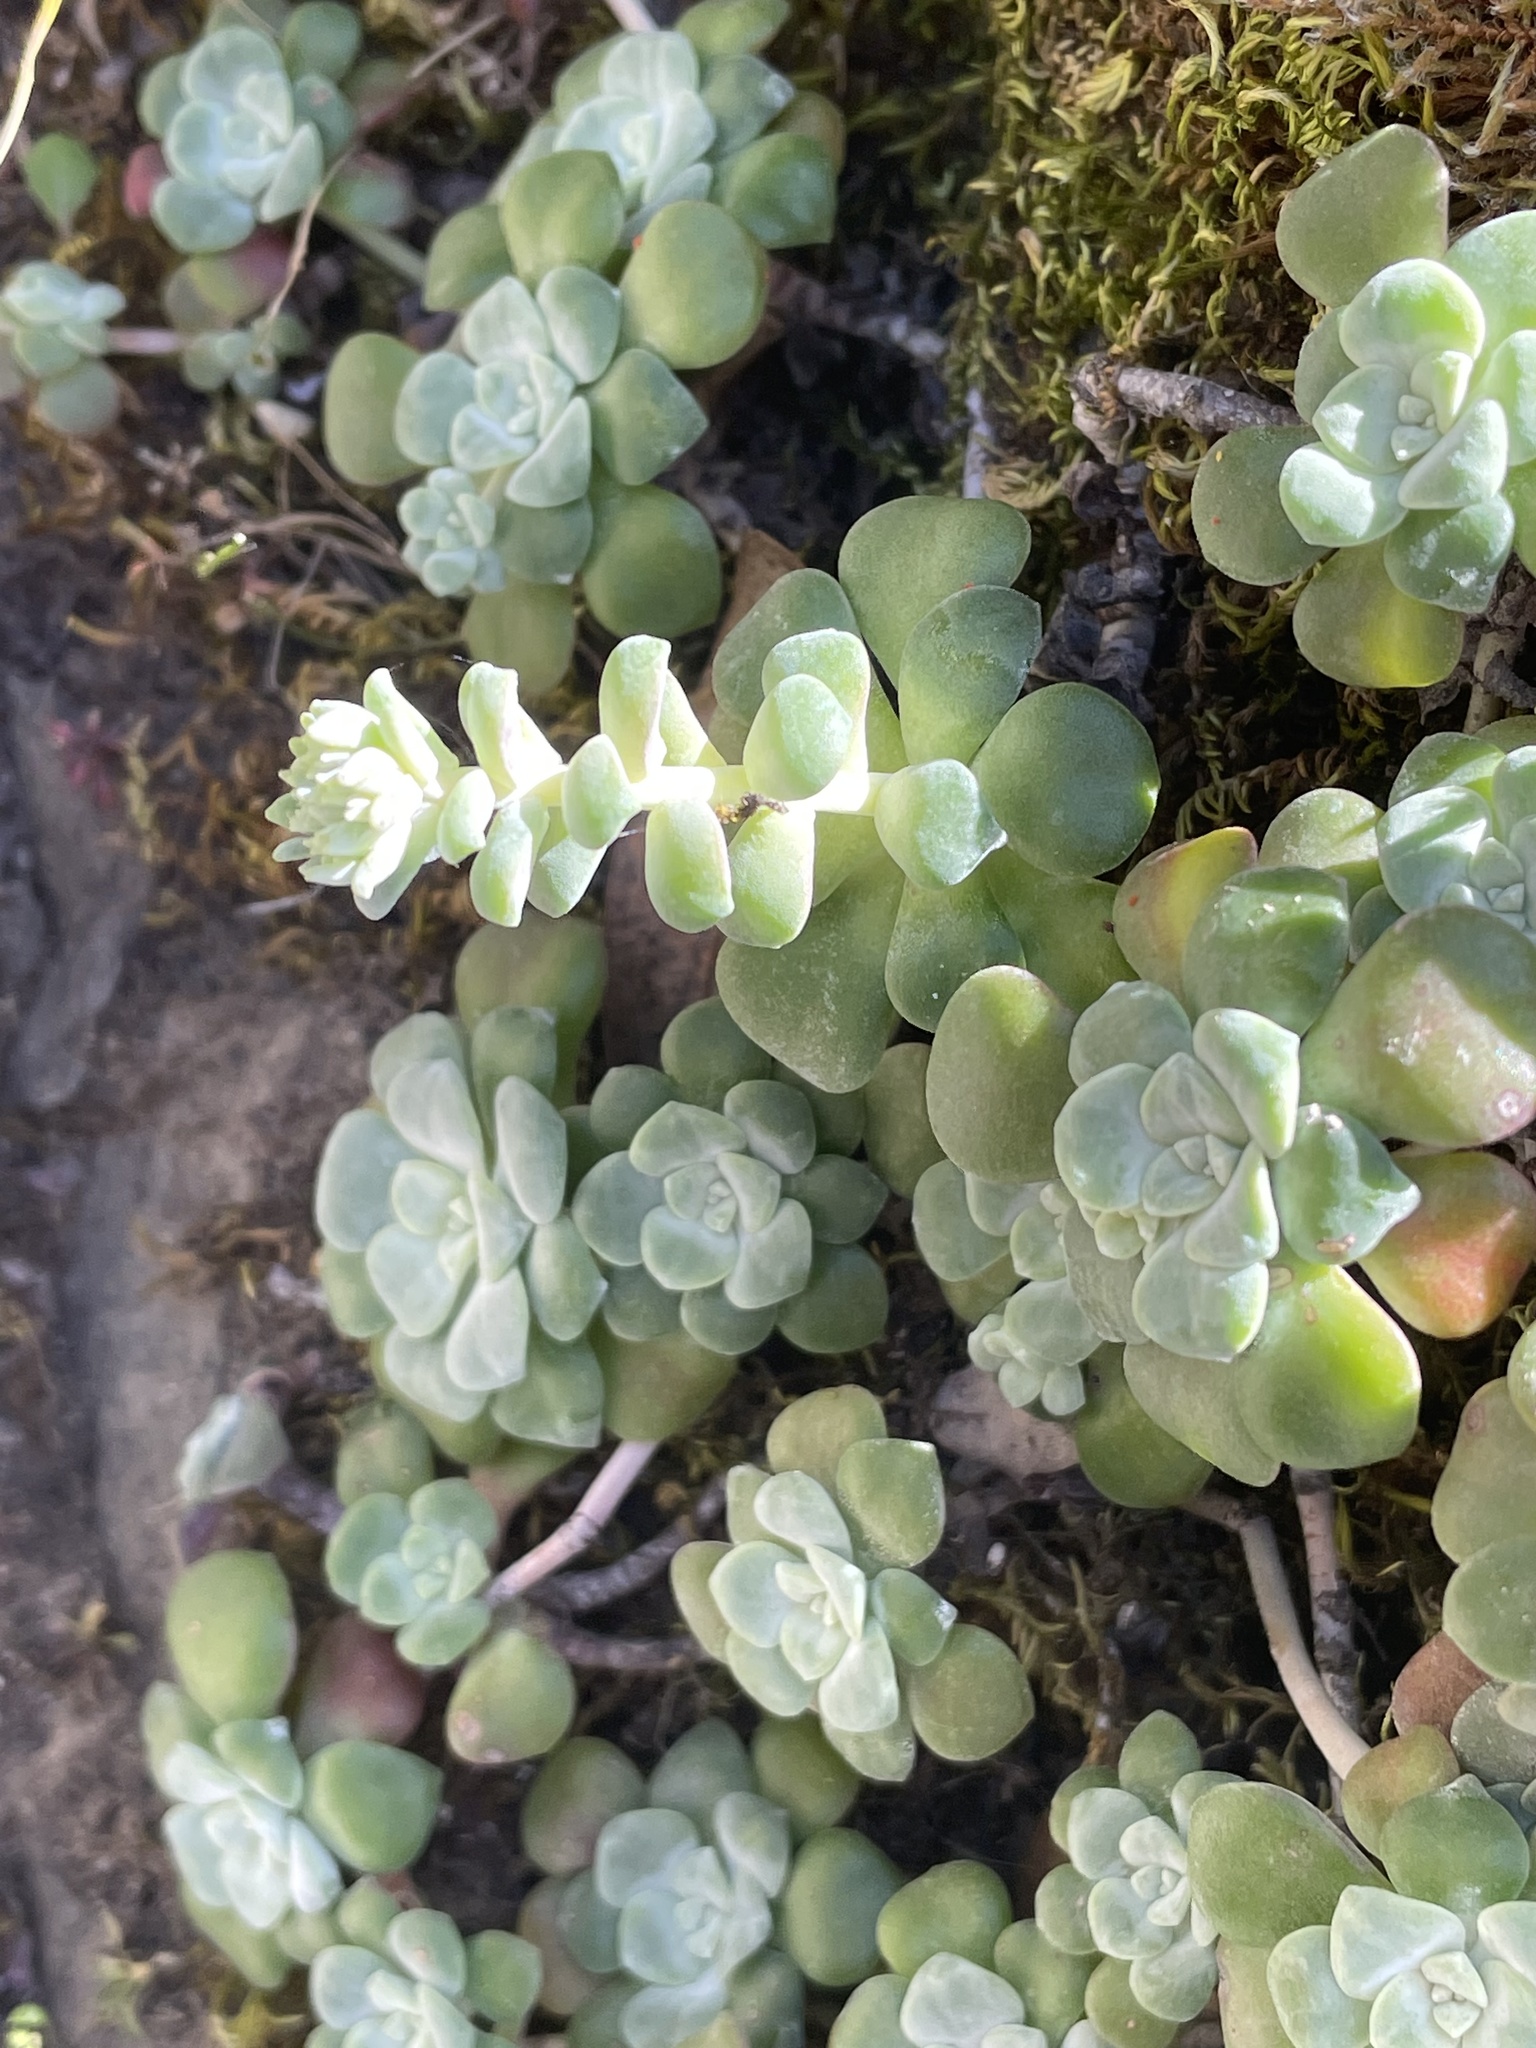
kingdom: Plantae
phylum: Tracheophyta
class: Magnoliopsida
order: Saxifragales
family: Crassulaceae
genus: Sedum
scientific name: Sedum spathulifolium
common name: Colorado stonecrop
